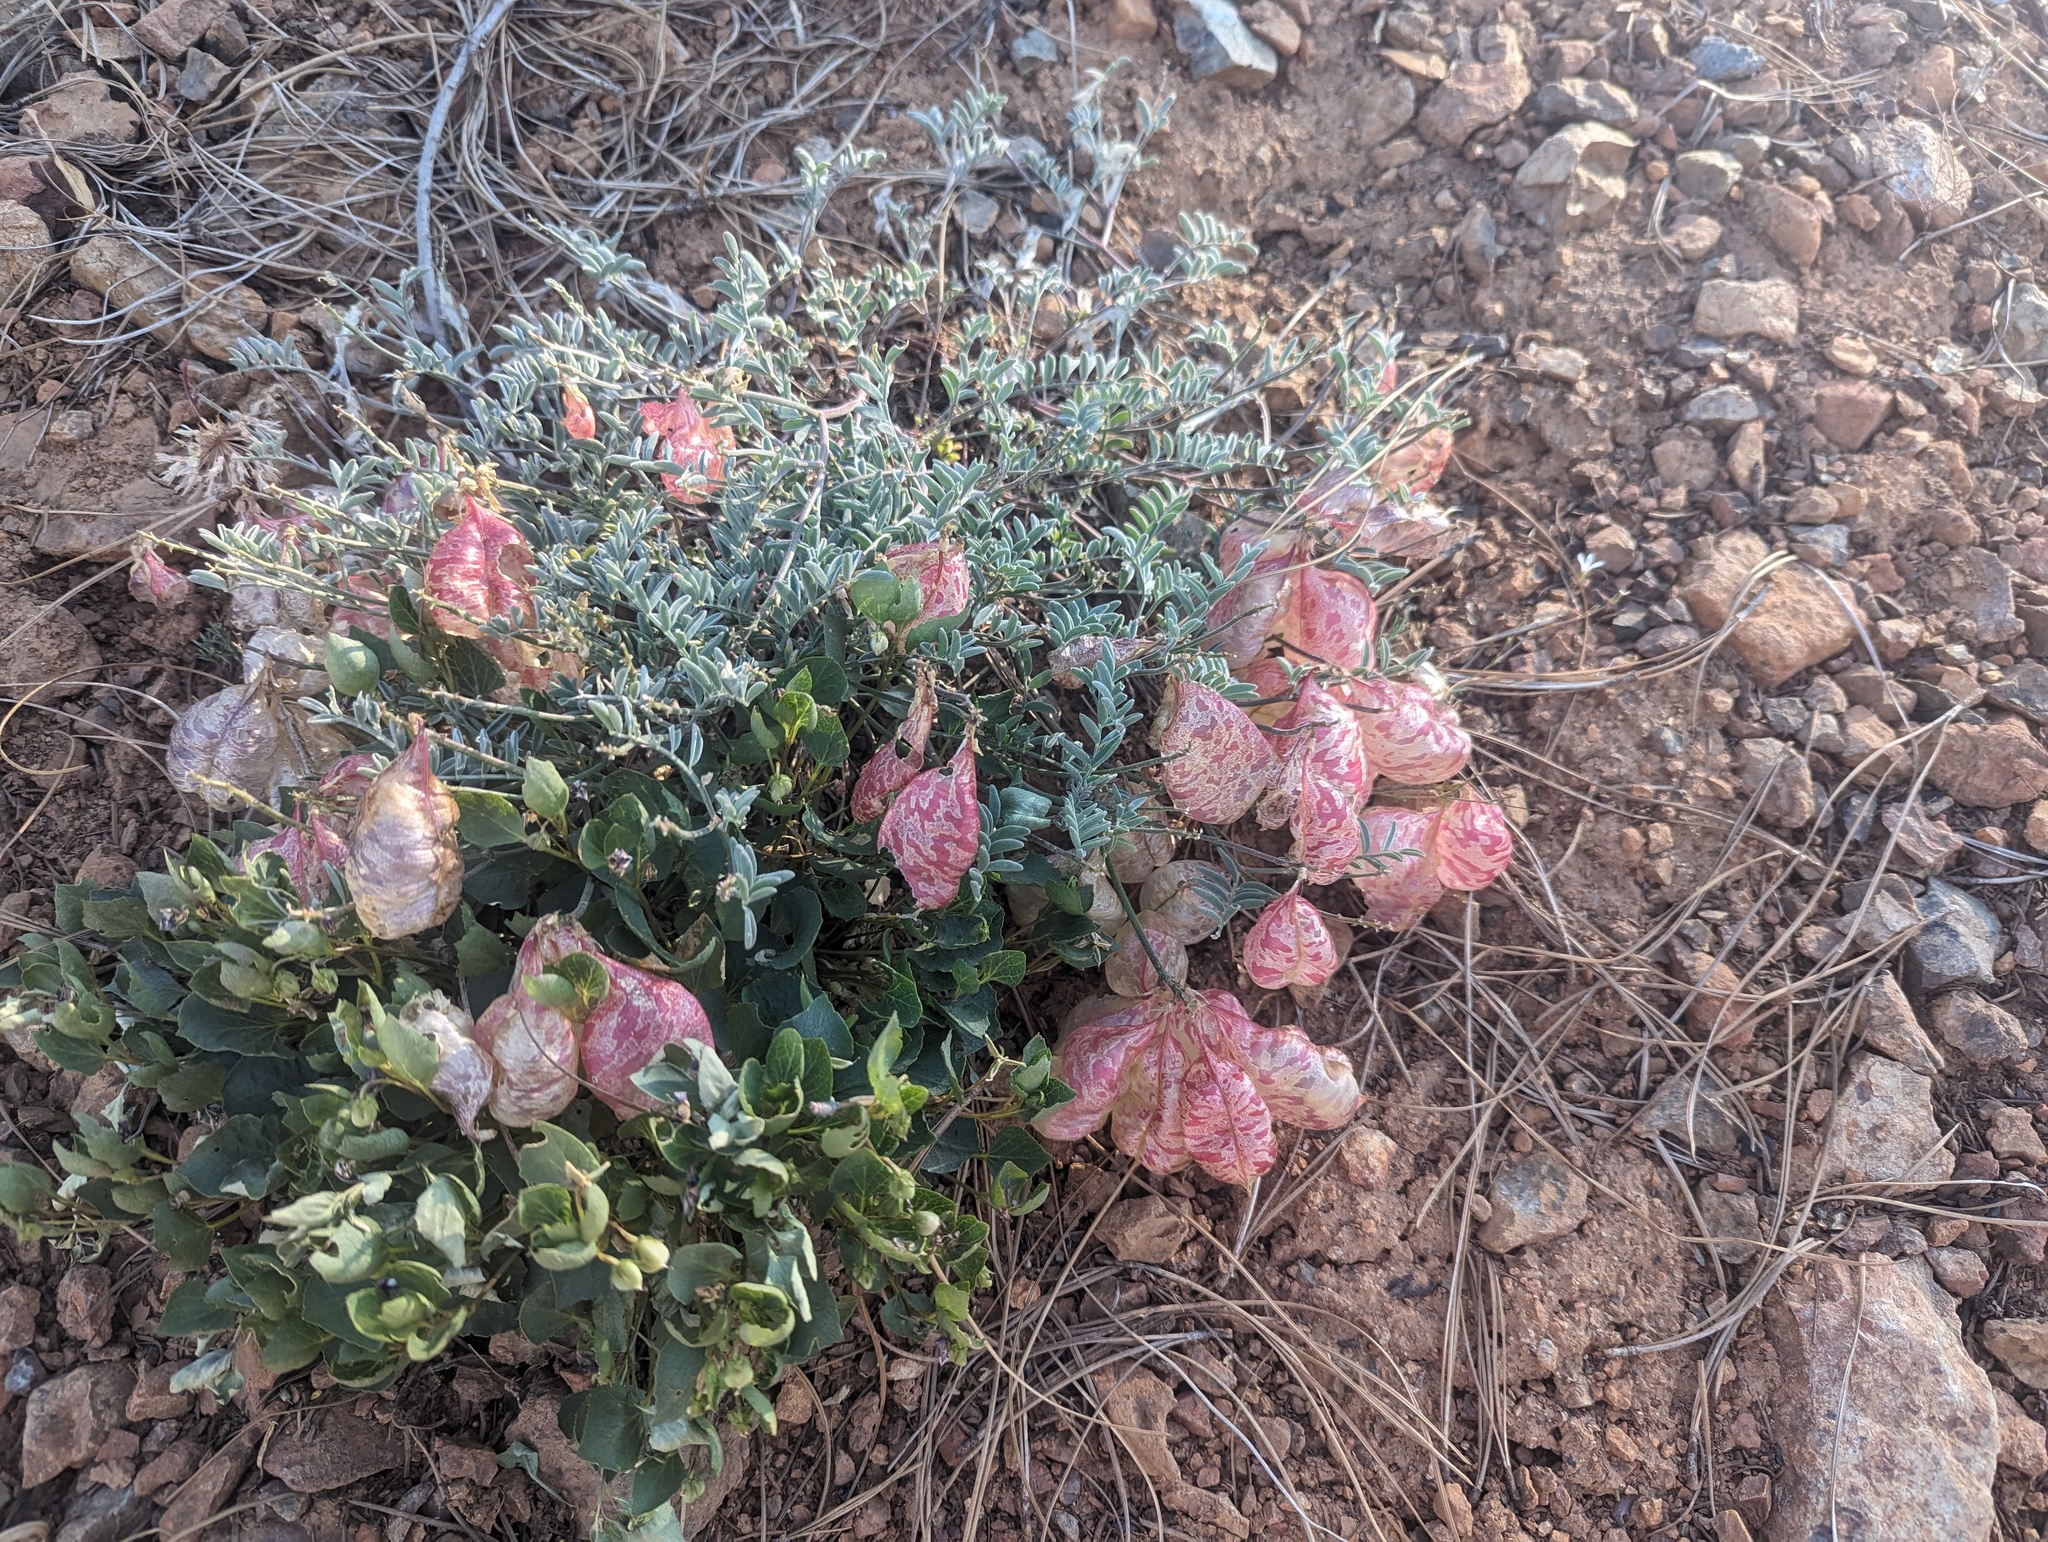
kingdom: Plantae
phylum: Tracheophyta
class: Magnoliopsida
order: Fabales
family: Fabaceae
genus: Astragalus
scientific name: Astragalus whitneyi
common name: Balloonpod milkvetch
